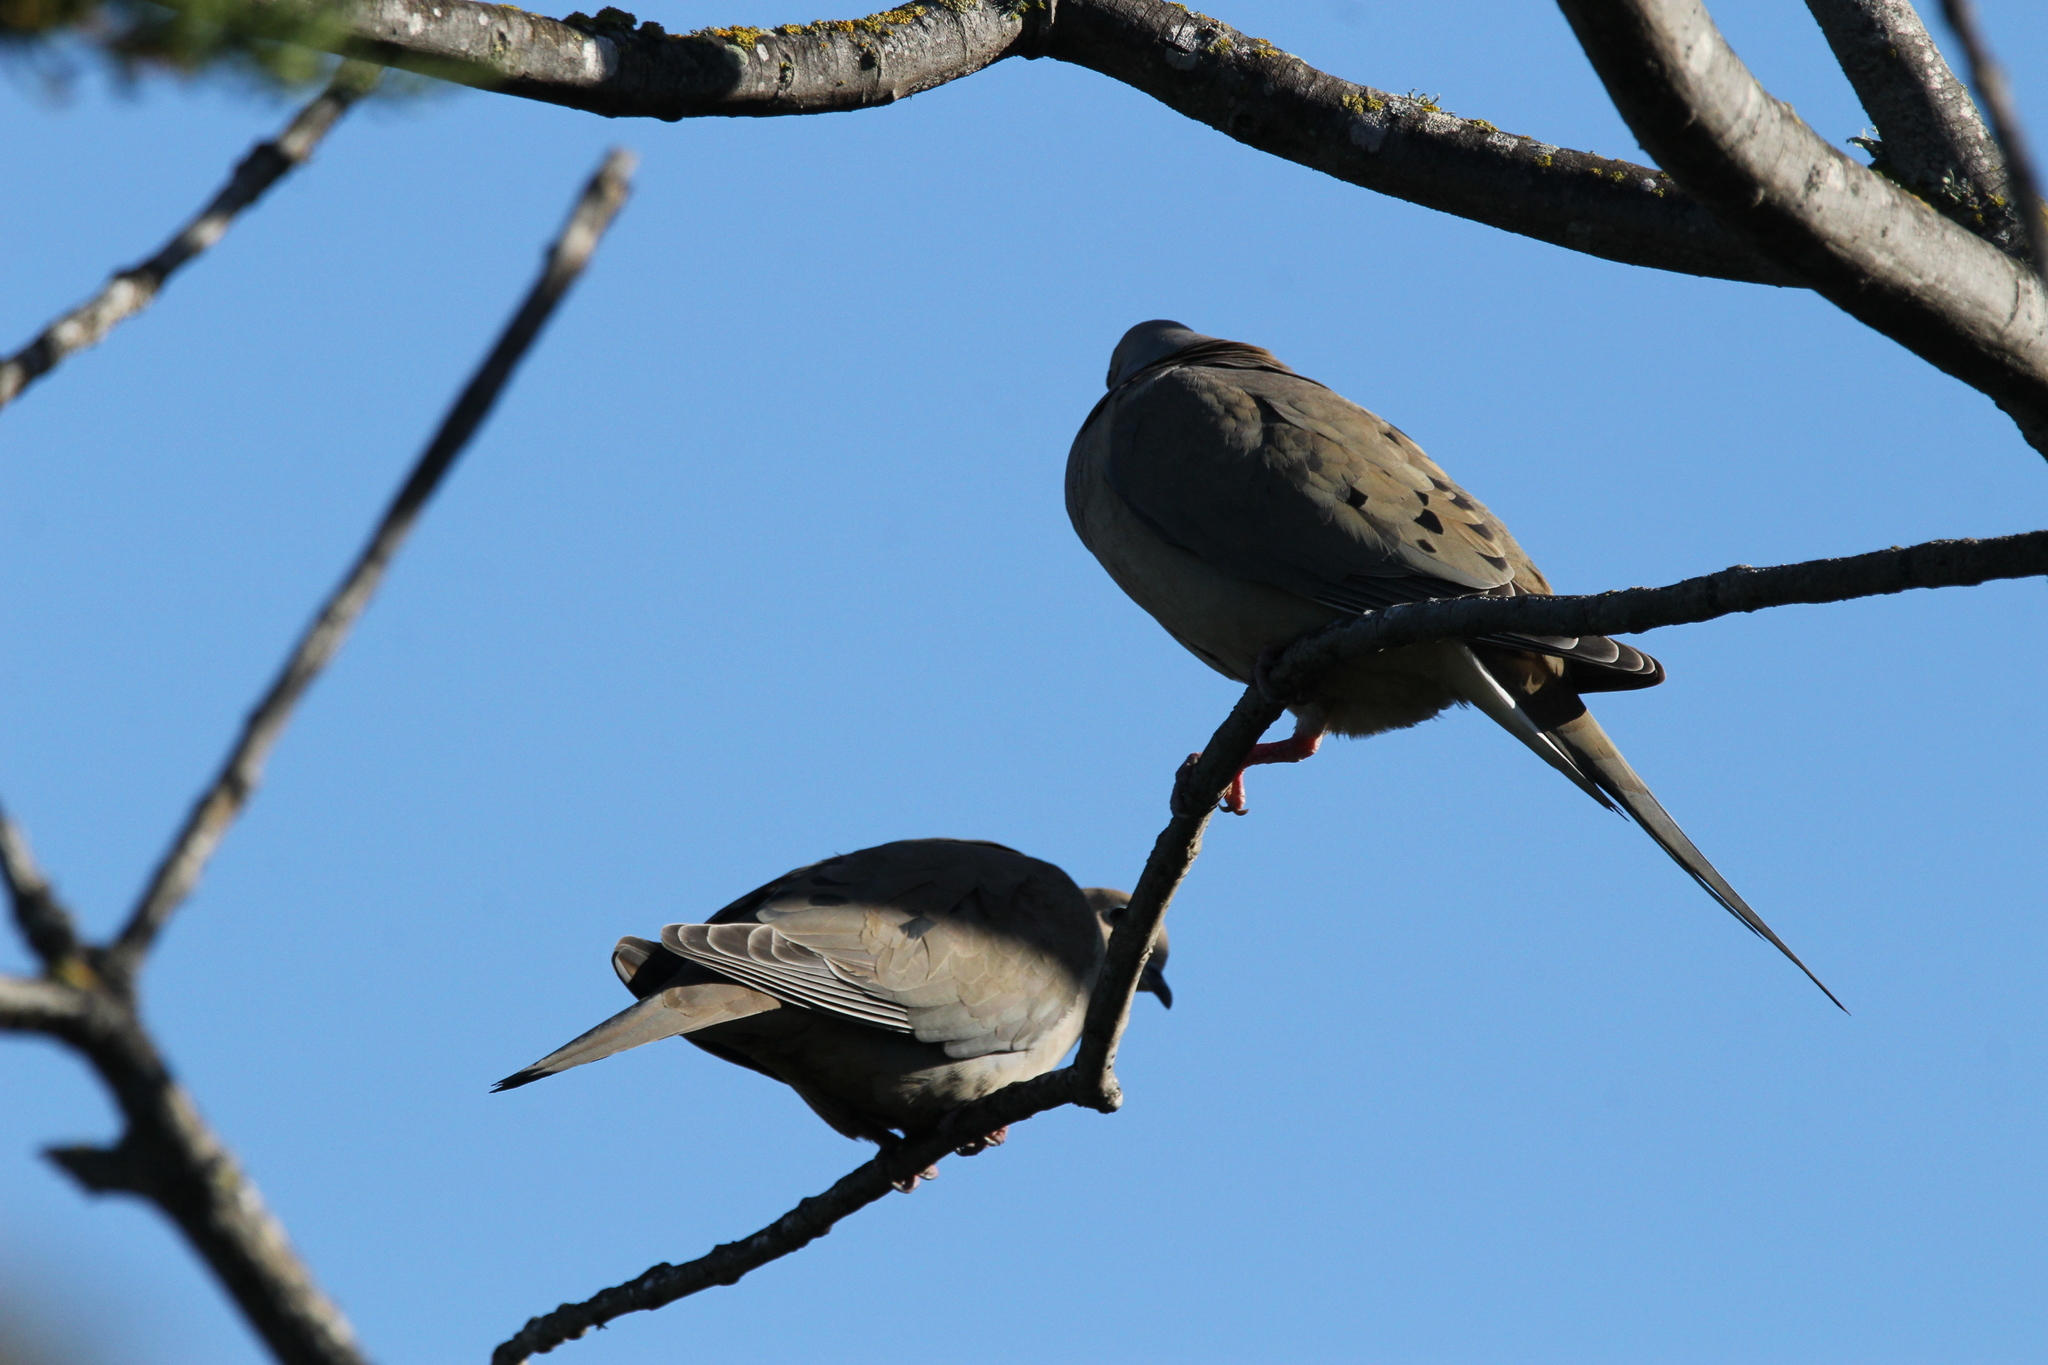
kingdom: Animalia
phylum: Chordata
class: Aves
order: Columbiformes
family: Columbidae
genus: Zenaida
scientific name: Zenaida macroura
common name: Mourning dove
